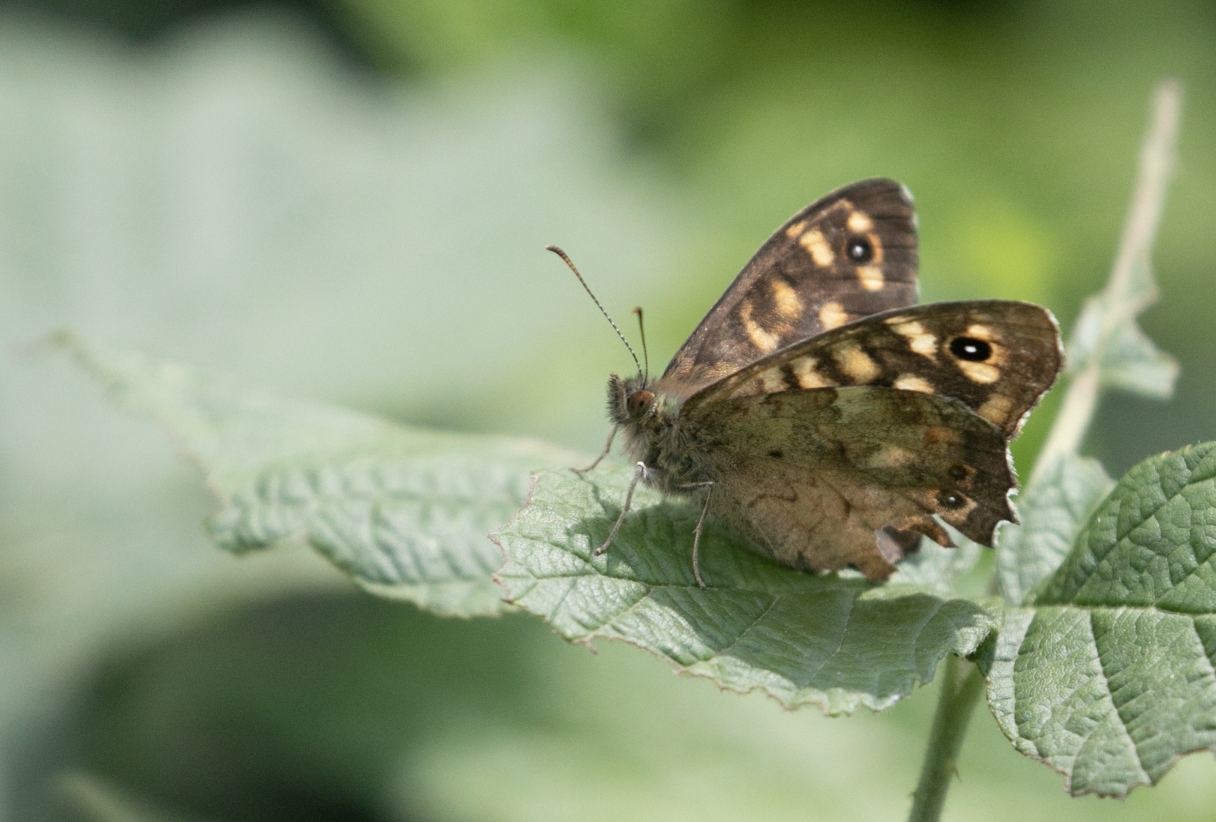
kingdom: Animalia
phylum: Arthropoda
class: Insecta
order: Lepidoptera
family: Nymphalidae
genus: Pararge
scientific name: Pararge aegeria
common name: Speckled wood
